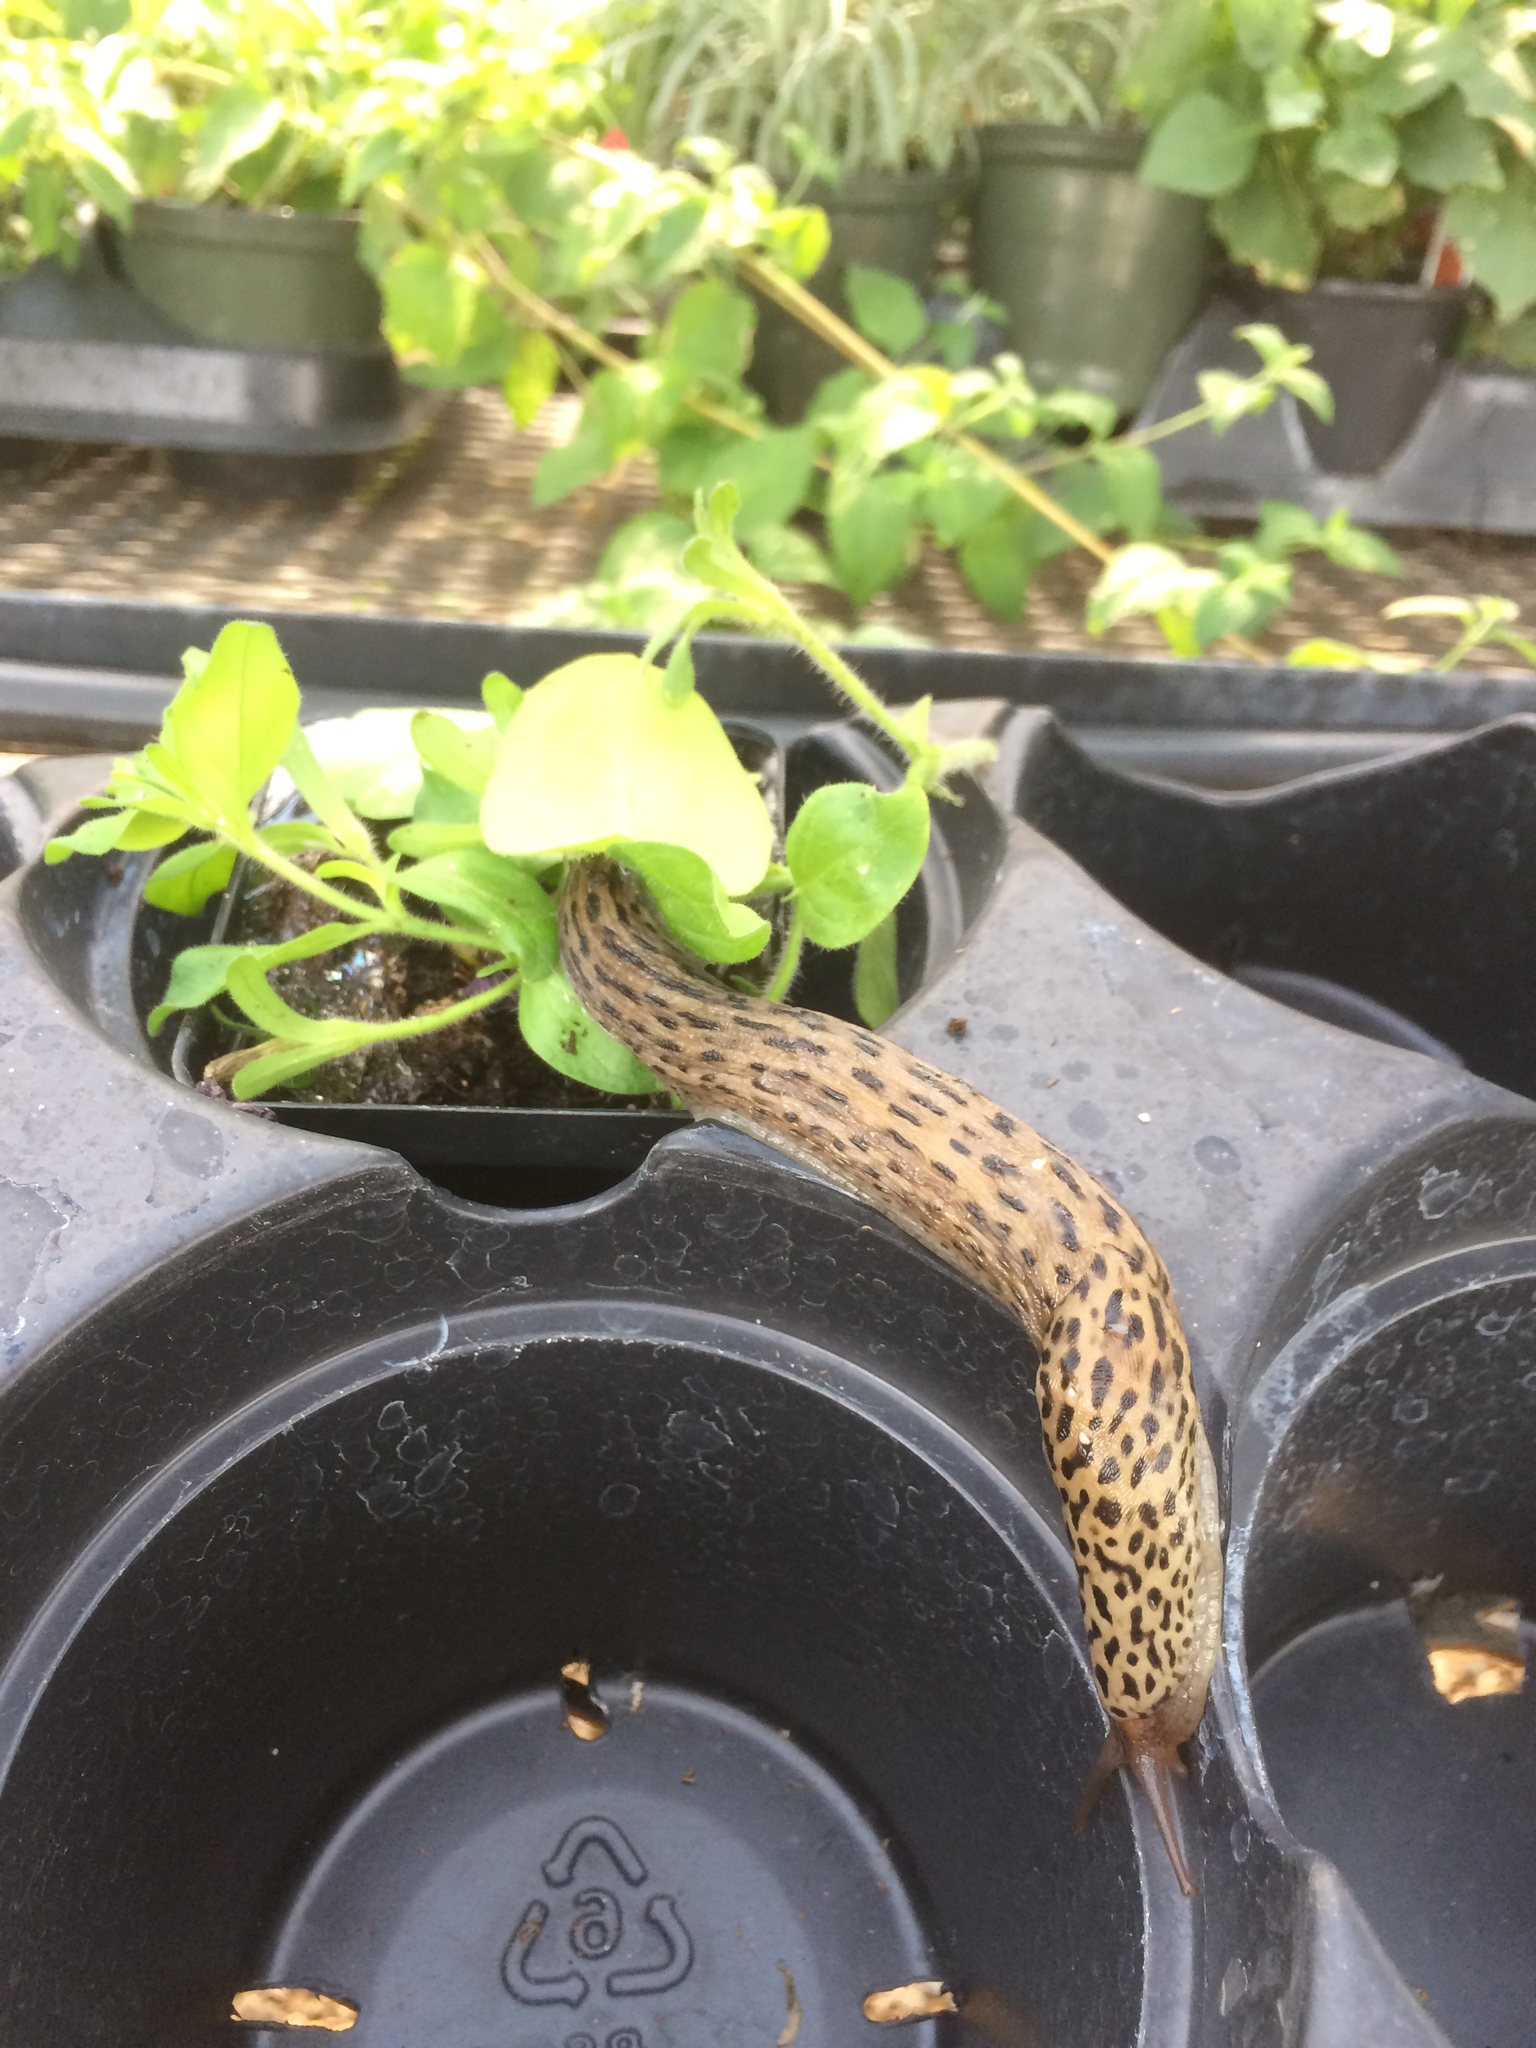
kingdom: Animalia
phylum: Mollusca
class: Gastropoda
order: Stylommatophora
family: Limacidae
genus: Limax
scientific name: Limax maximus
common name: Great grey slug
